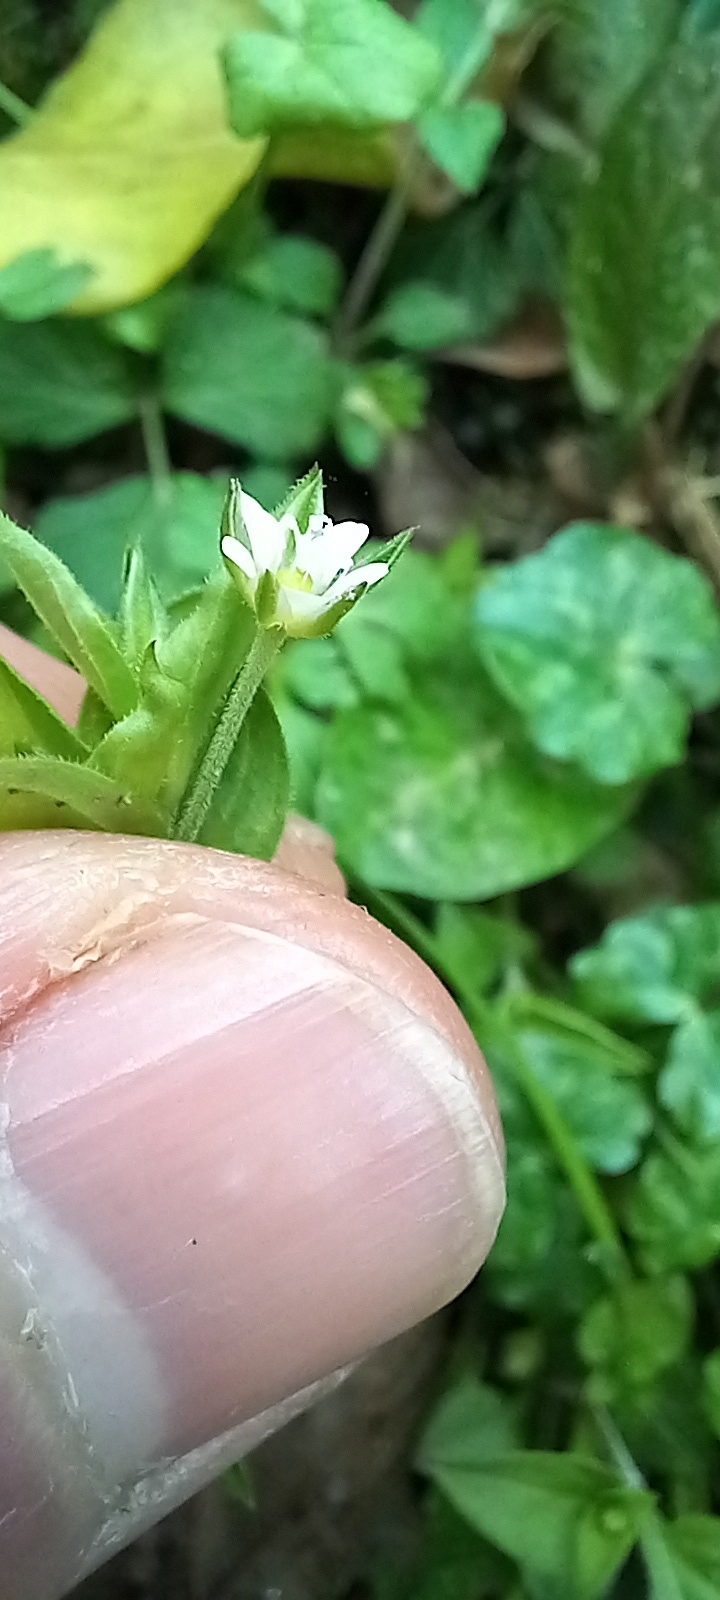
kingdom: Plantae
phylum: Tracheophyta
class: Magnoliopsida
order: Caryophyllales
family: Caryophyllaceae
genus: Moehringia
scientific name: Moehringia trinervia
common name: Three-nerved sandwort
